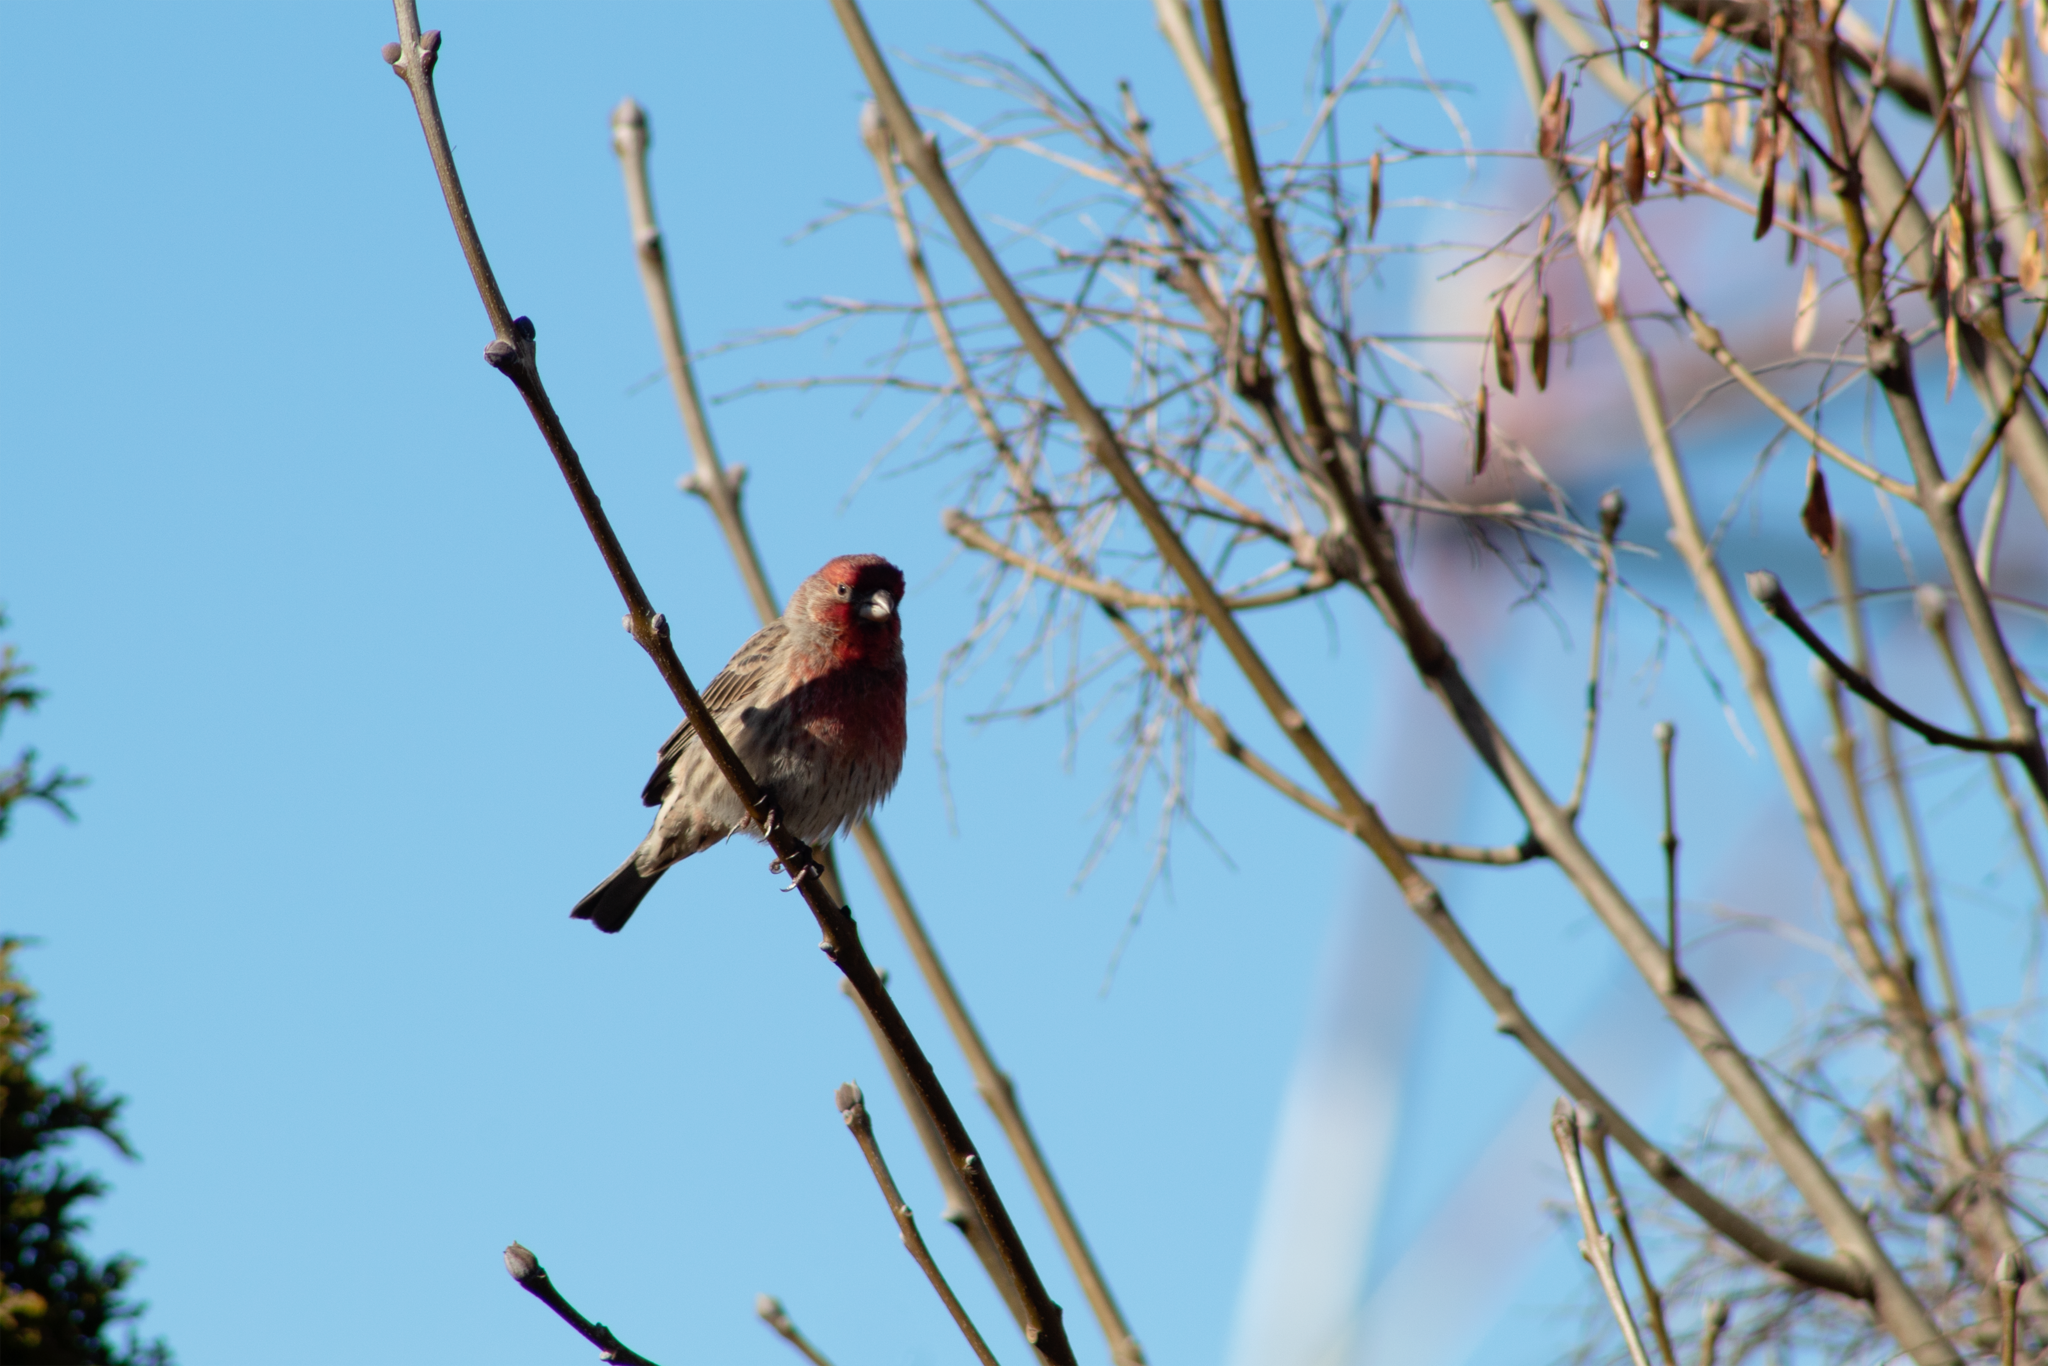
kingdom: Animalia
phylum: Chordata
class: Aves
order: Passeriformes
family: Fringillidae
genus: Haemorhous
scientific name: Haemorhous mexicanus
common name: House finch
